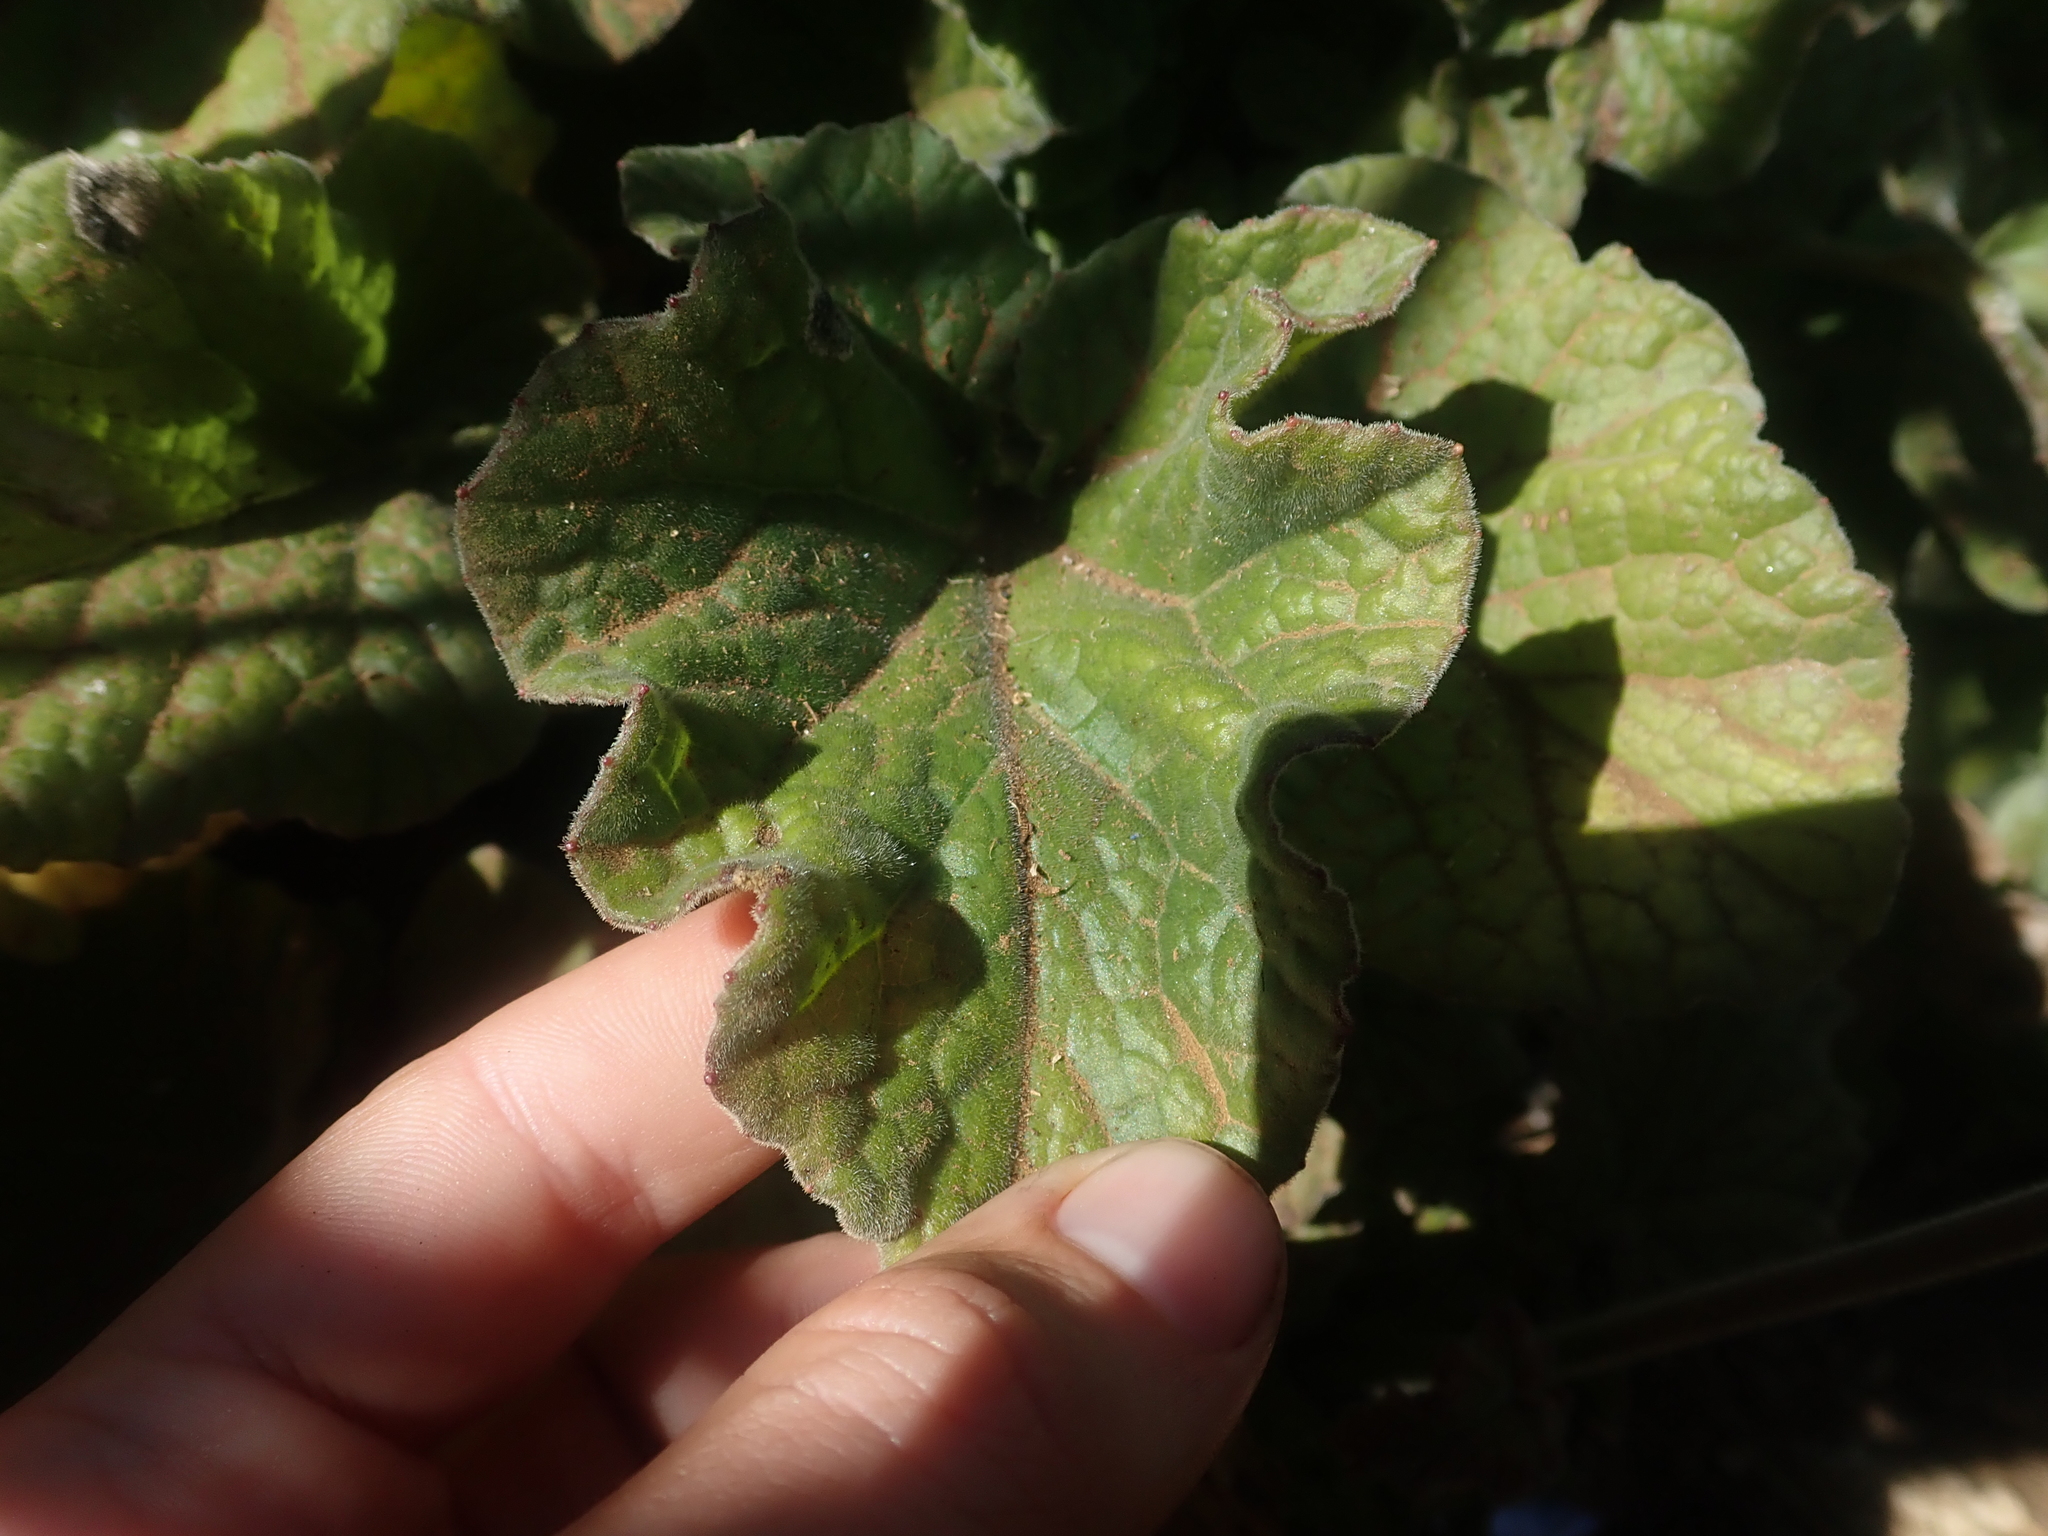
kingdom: Plantae
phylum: Tracheophyta
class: Magnoliopsida
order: Geraniales
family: Francoaceae
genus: Francoa
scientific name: Francoa appendiculata
